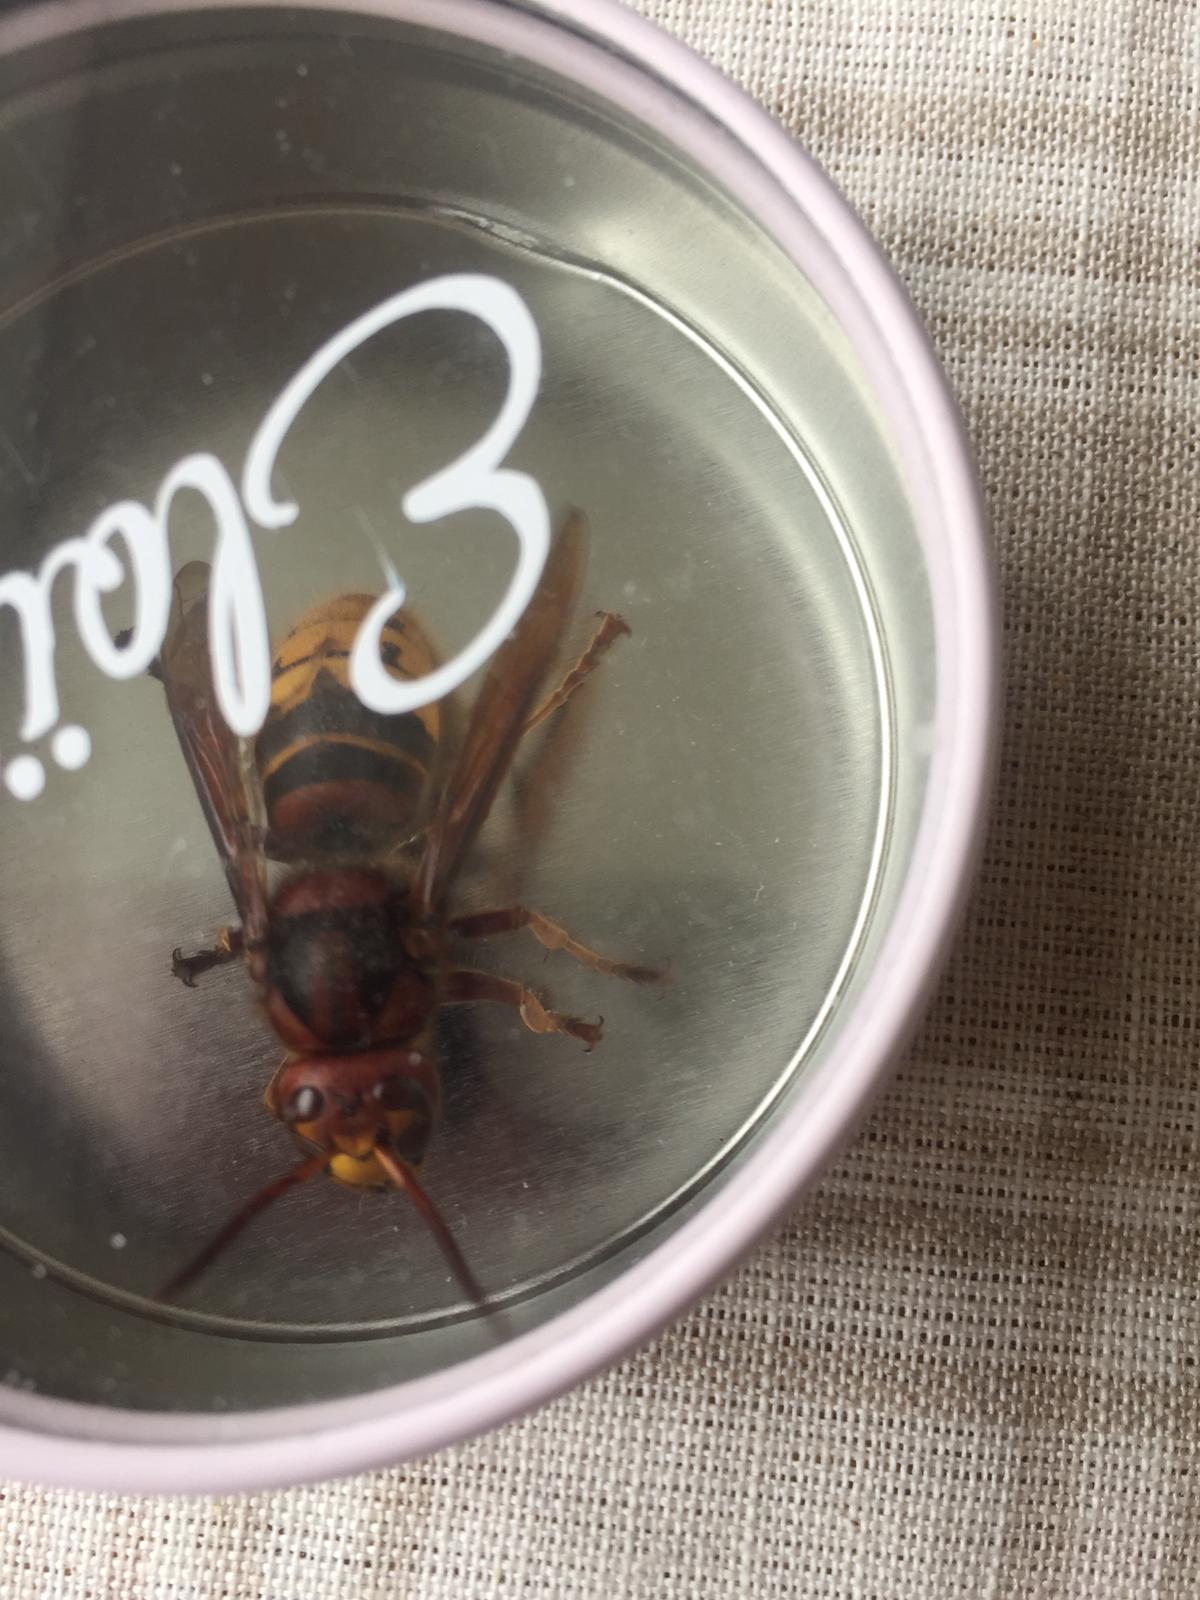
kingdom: Animalia
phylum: Arthropoda
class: Insecta
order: Hymenoptera
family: Vespidae
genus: Vespa
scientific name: Vespa crabro
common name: Hornet
